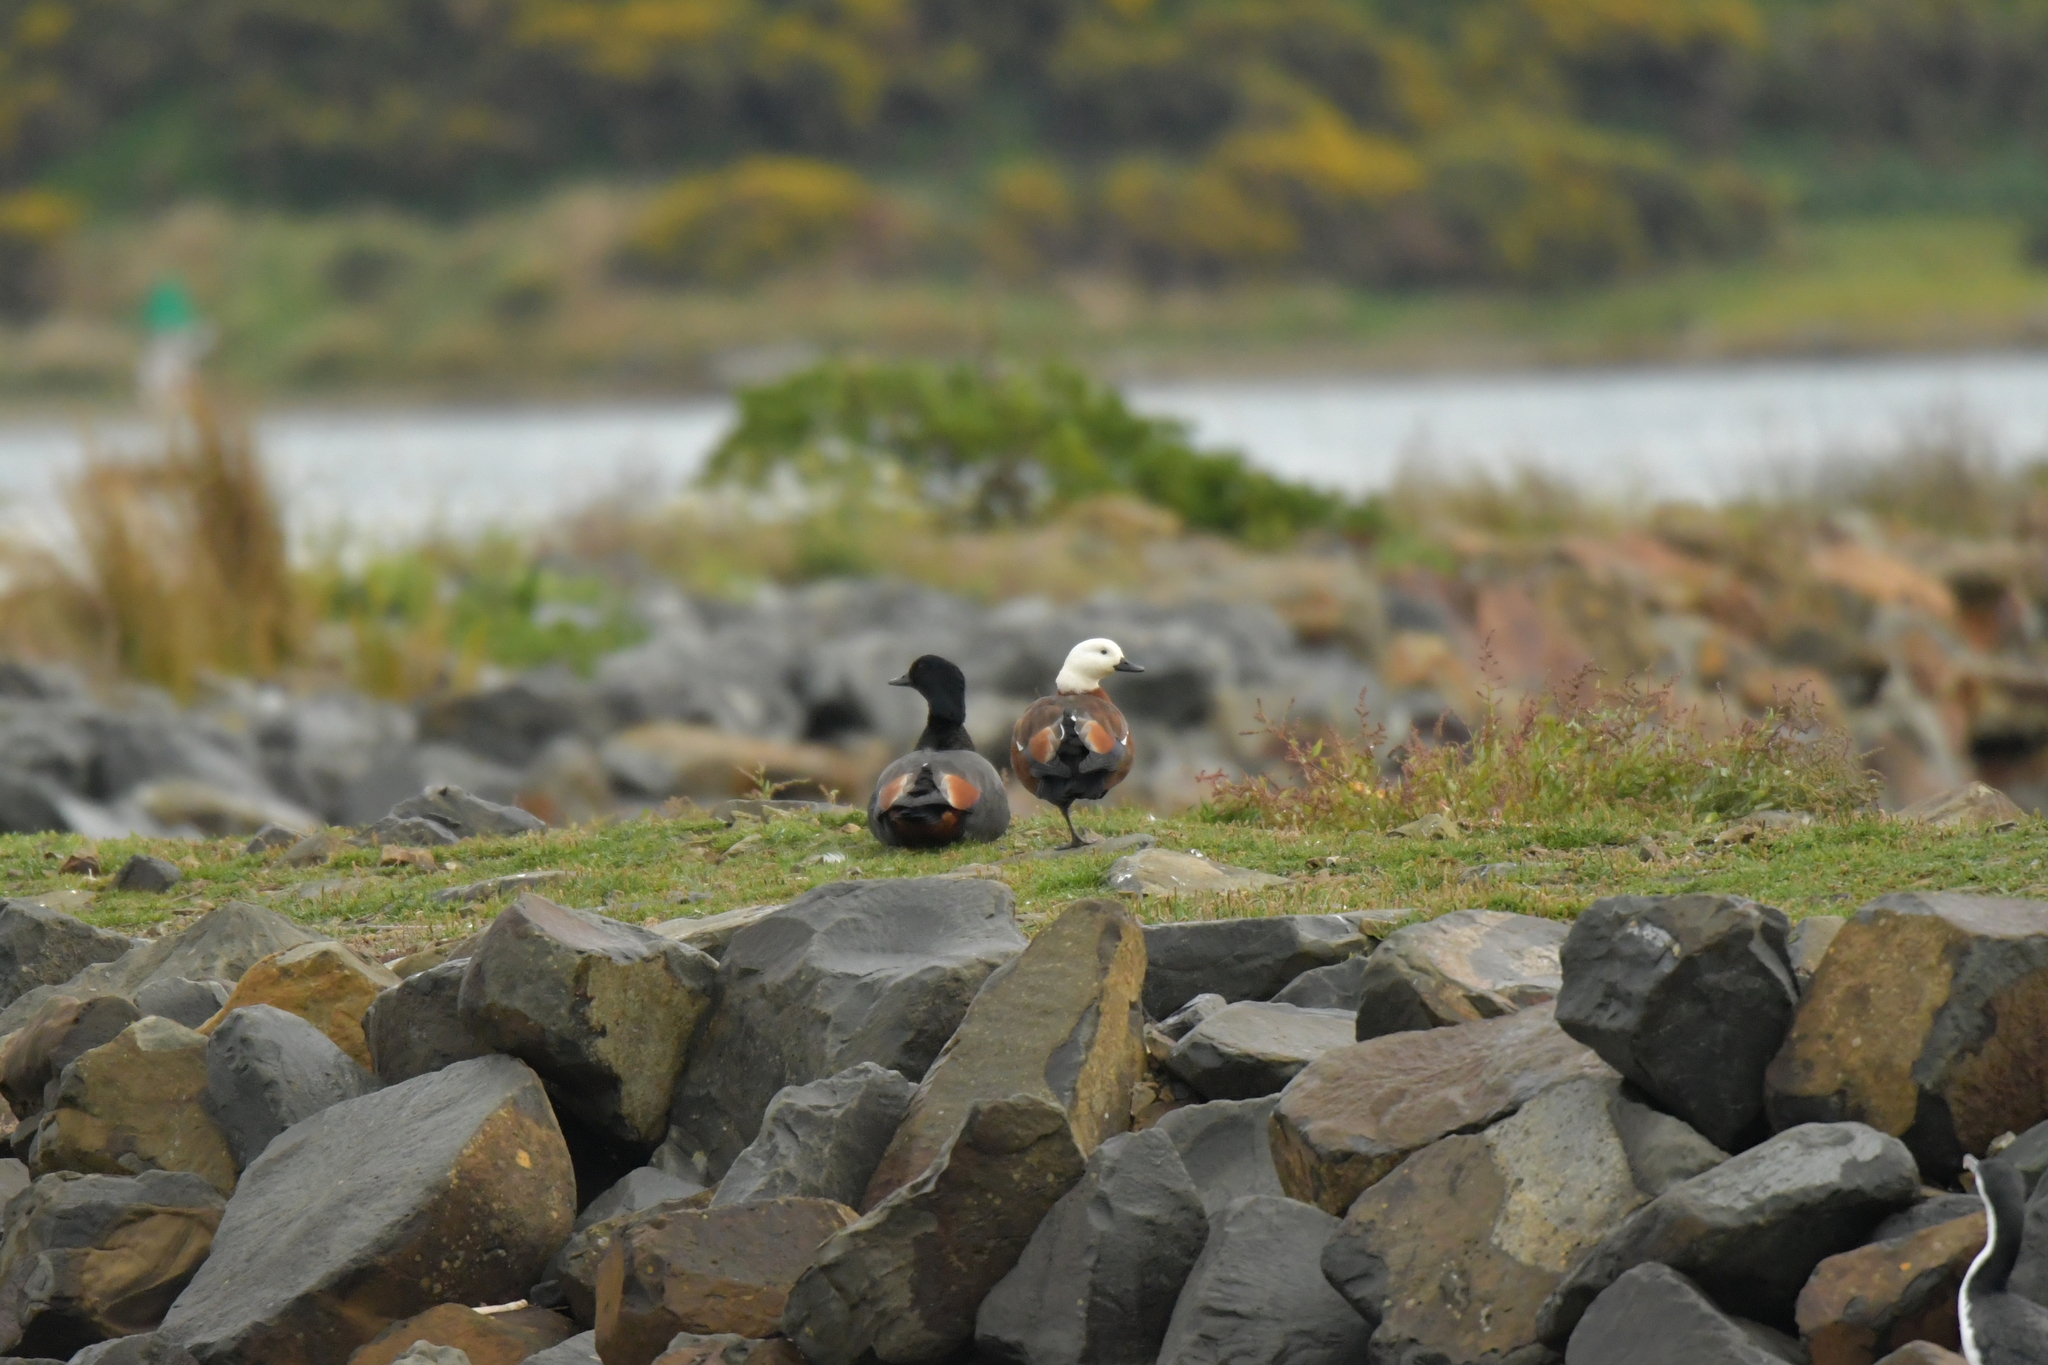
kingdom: Animalia
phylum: Chordata
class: Aves
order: Anseriformes
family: Anatidae
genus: Tadorna
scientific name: Tadorna variegata
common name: Paradise shelduck
